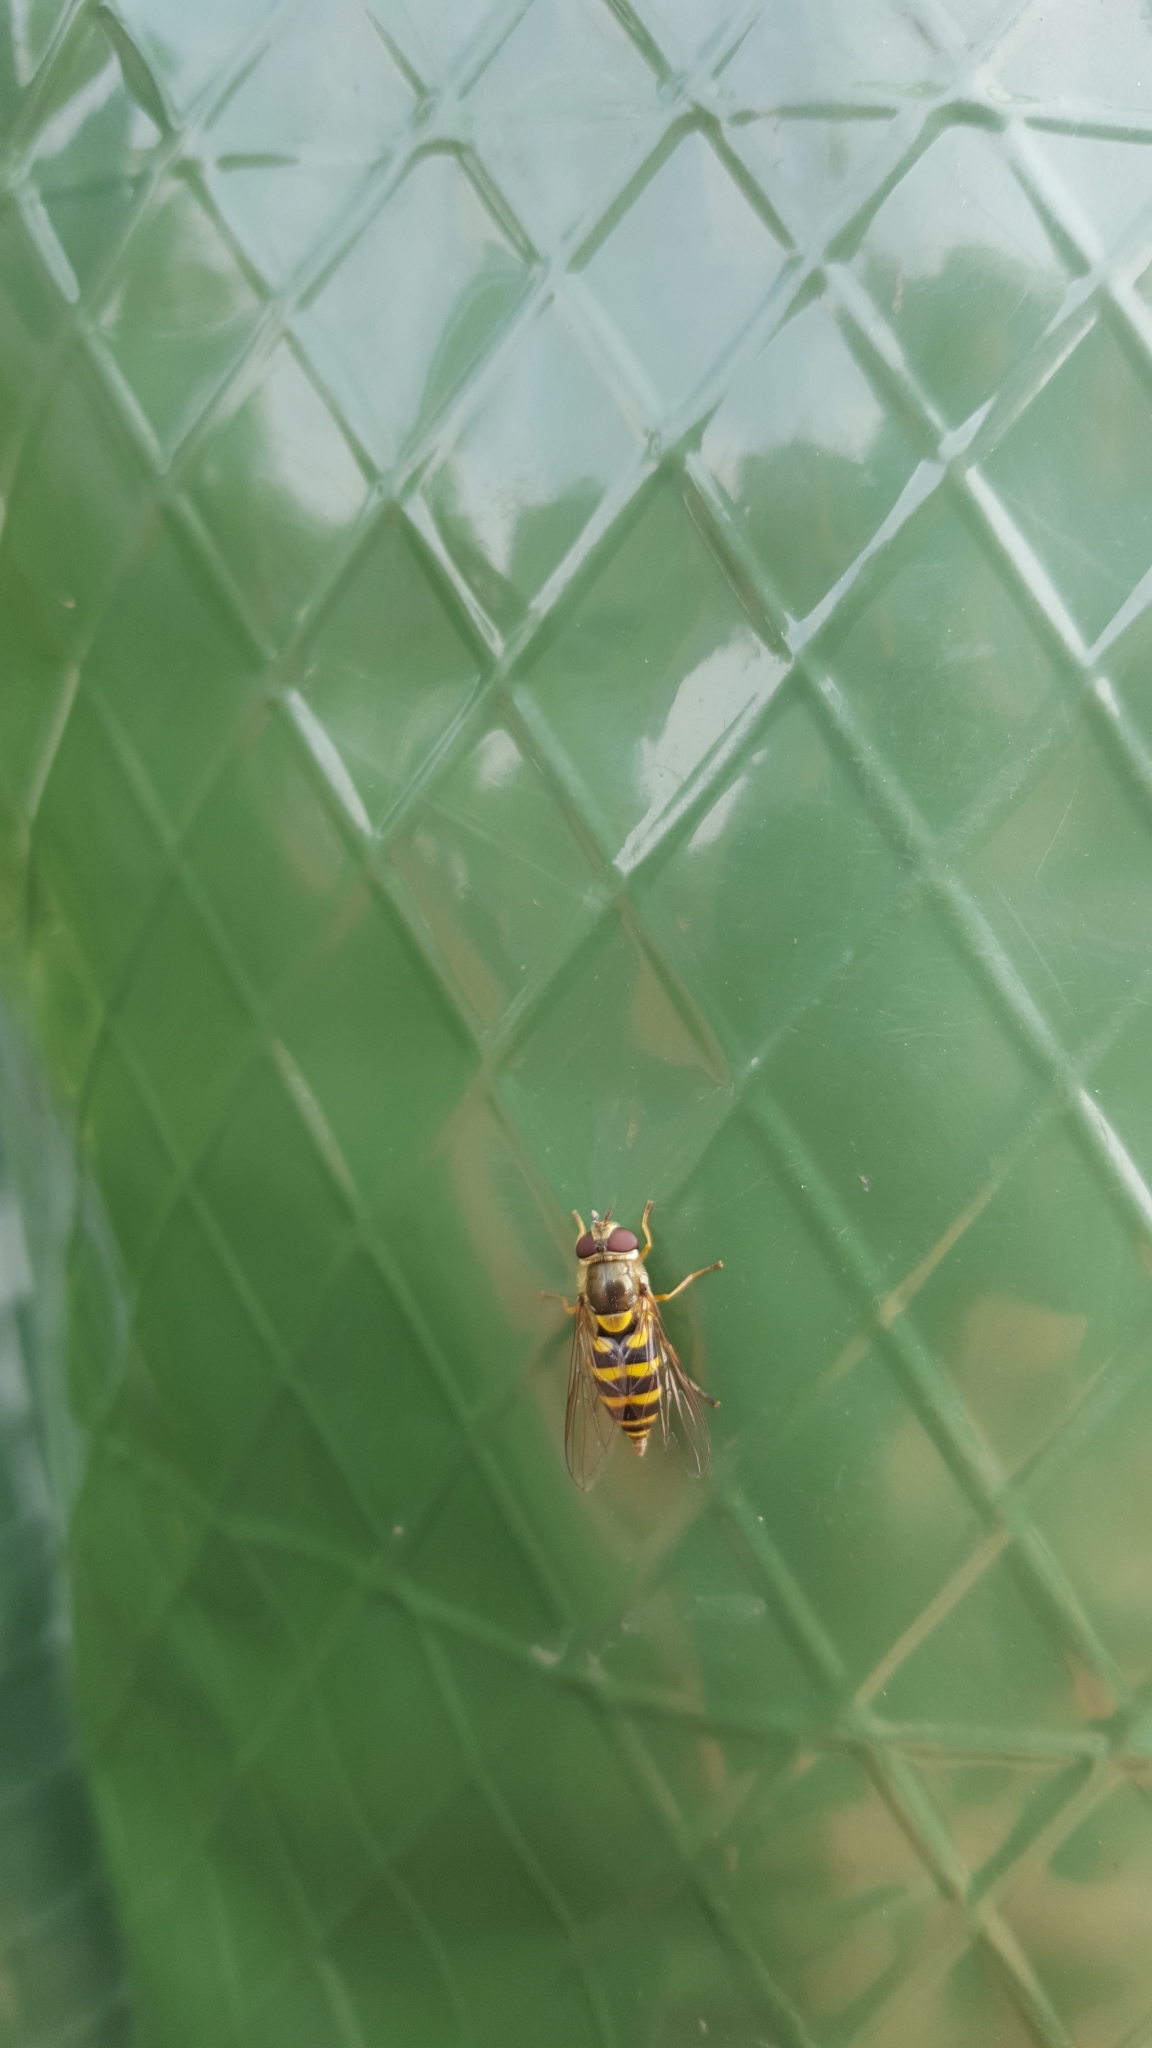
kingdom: Animalia
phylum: Arthropoda
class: Insecta
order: Diptera
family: Syrphidae
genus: Syrphus
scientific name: Syrphus
